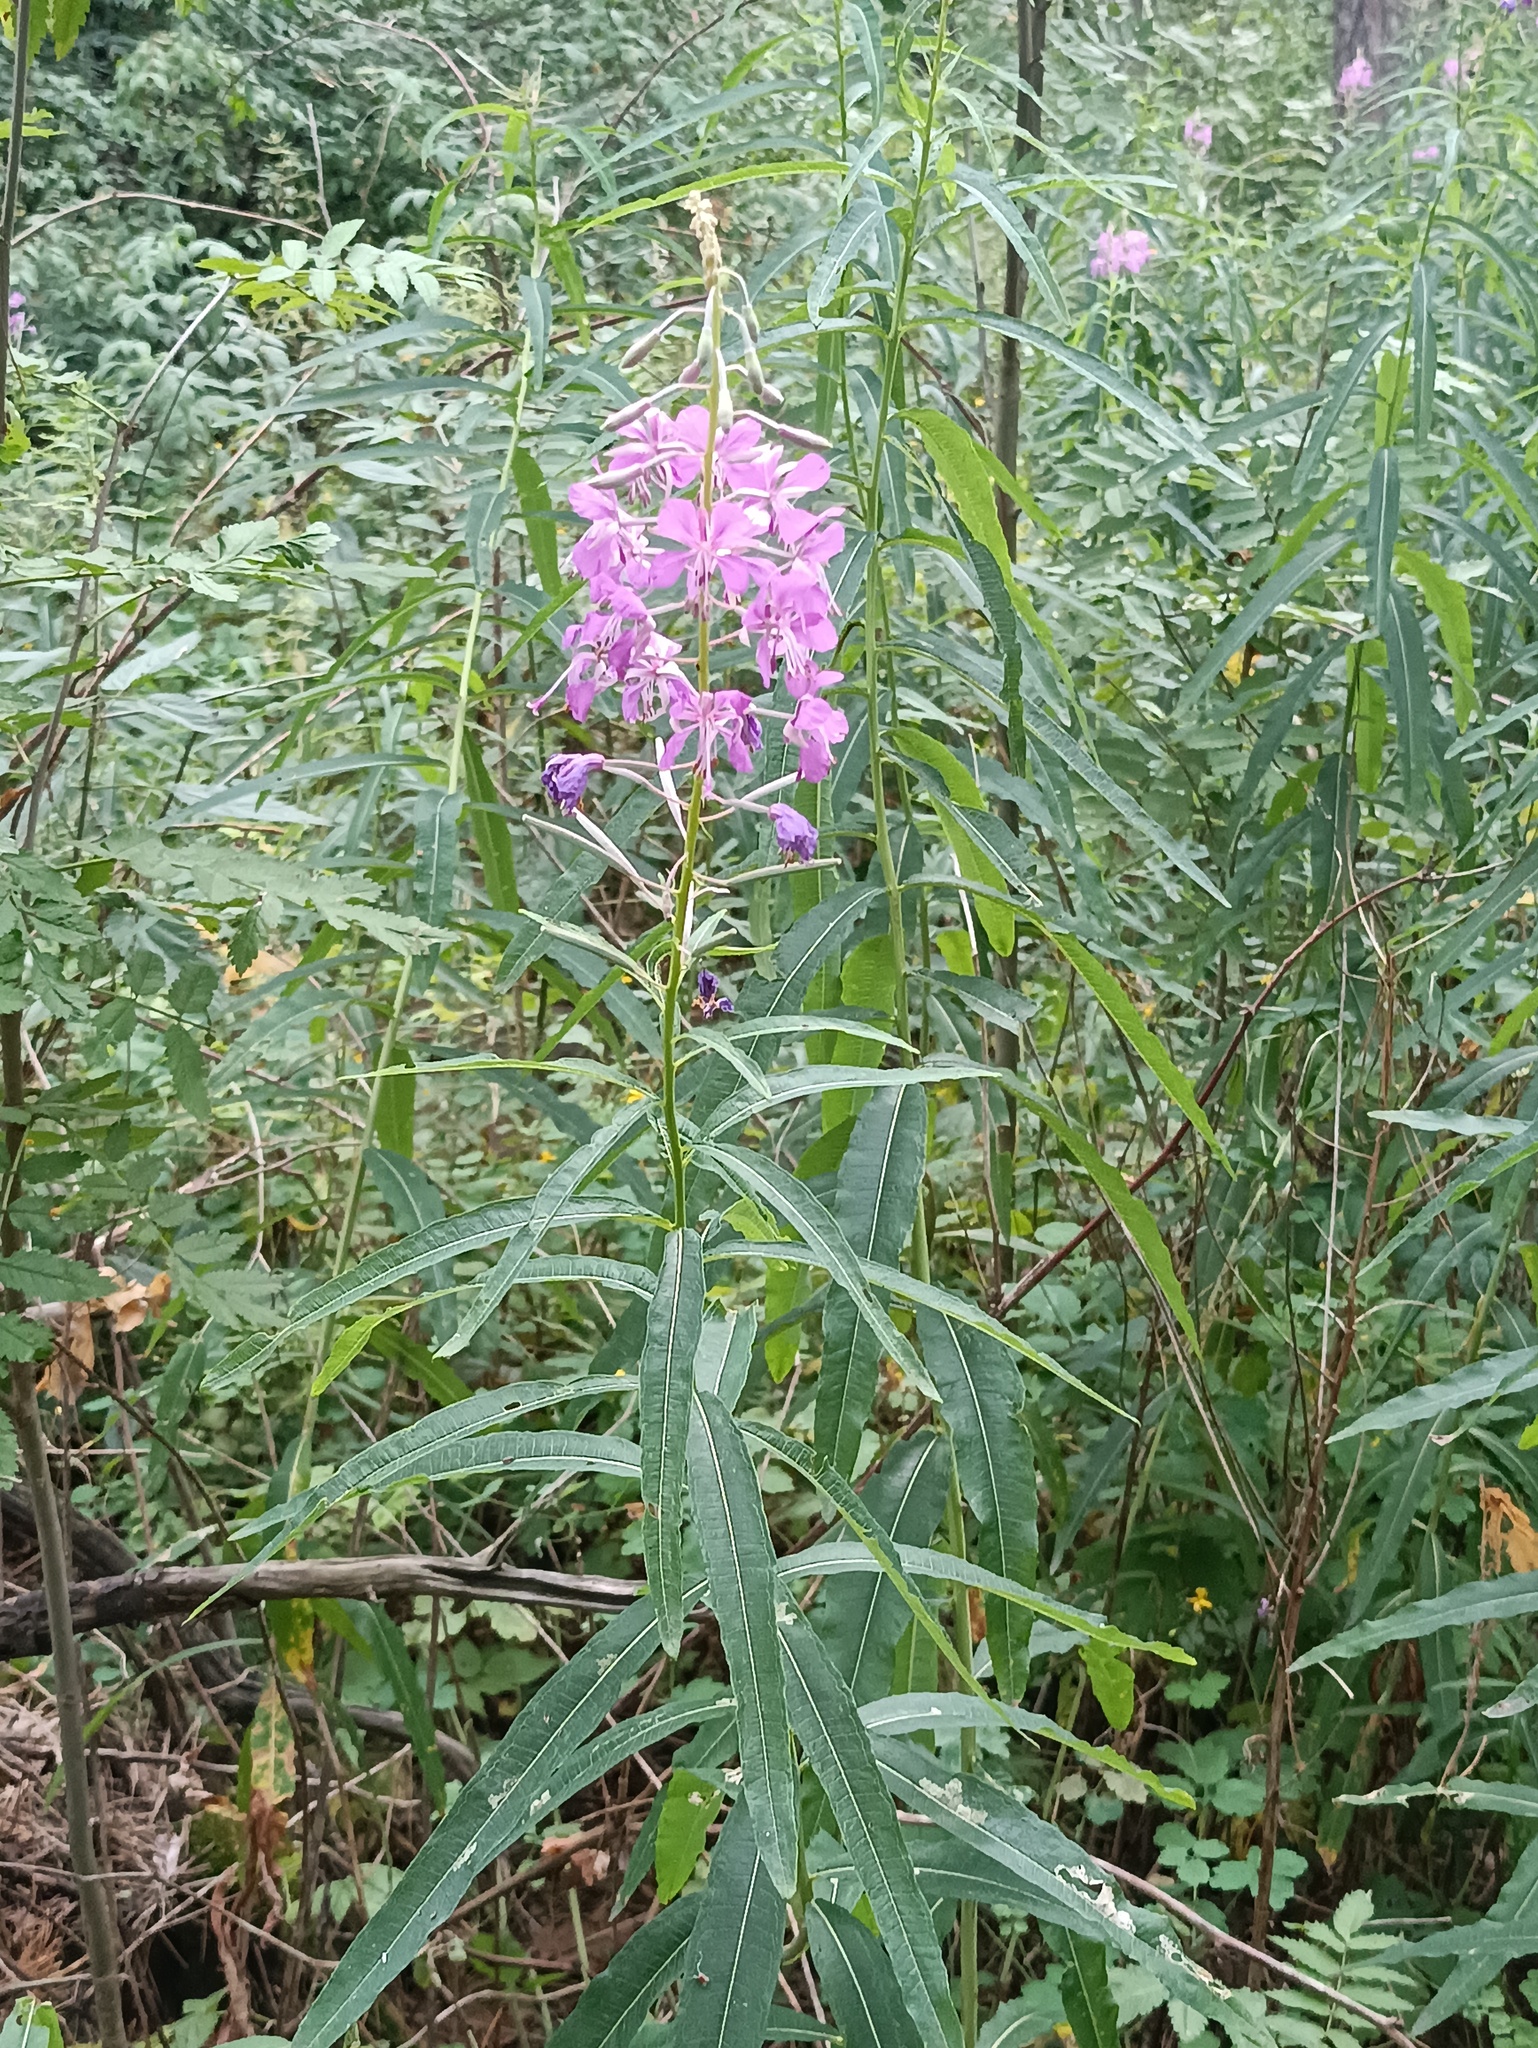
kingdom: Plantae
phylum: Tracheophyta
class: Magnoliopsida
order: Myrtales
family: Onagraceae
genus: Chamaenerion
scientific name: Chamaenerion angustifolium
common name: Fireweed
